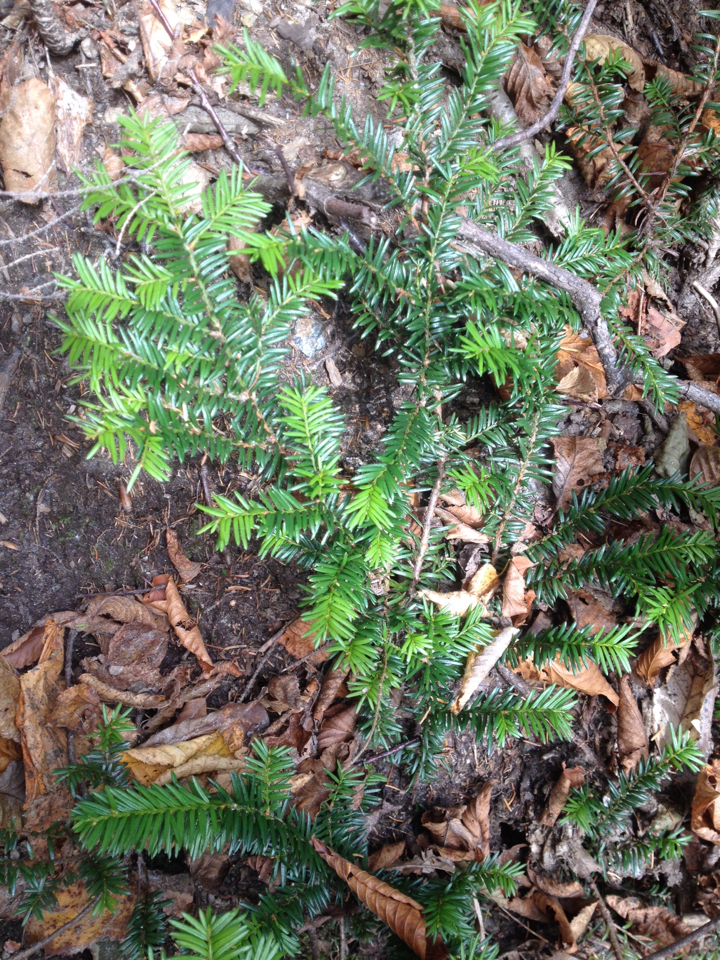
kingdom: Plantae
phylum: Tracheophyta
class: Pinopsida
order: Pinales
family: Taxaceae
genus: Taxus
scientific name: Taxus canadensis
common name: American yew
